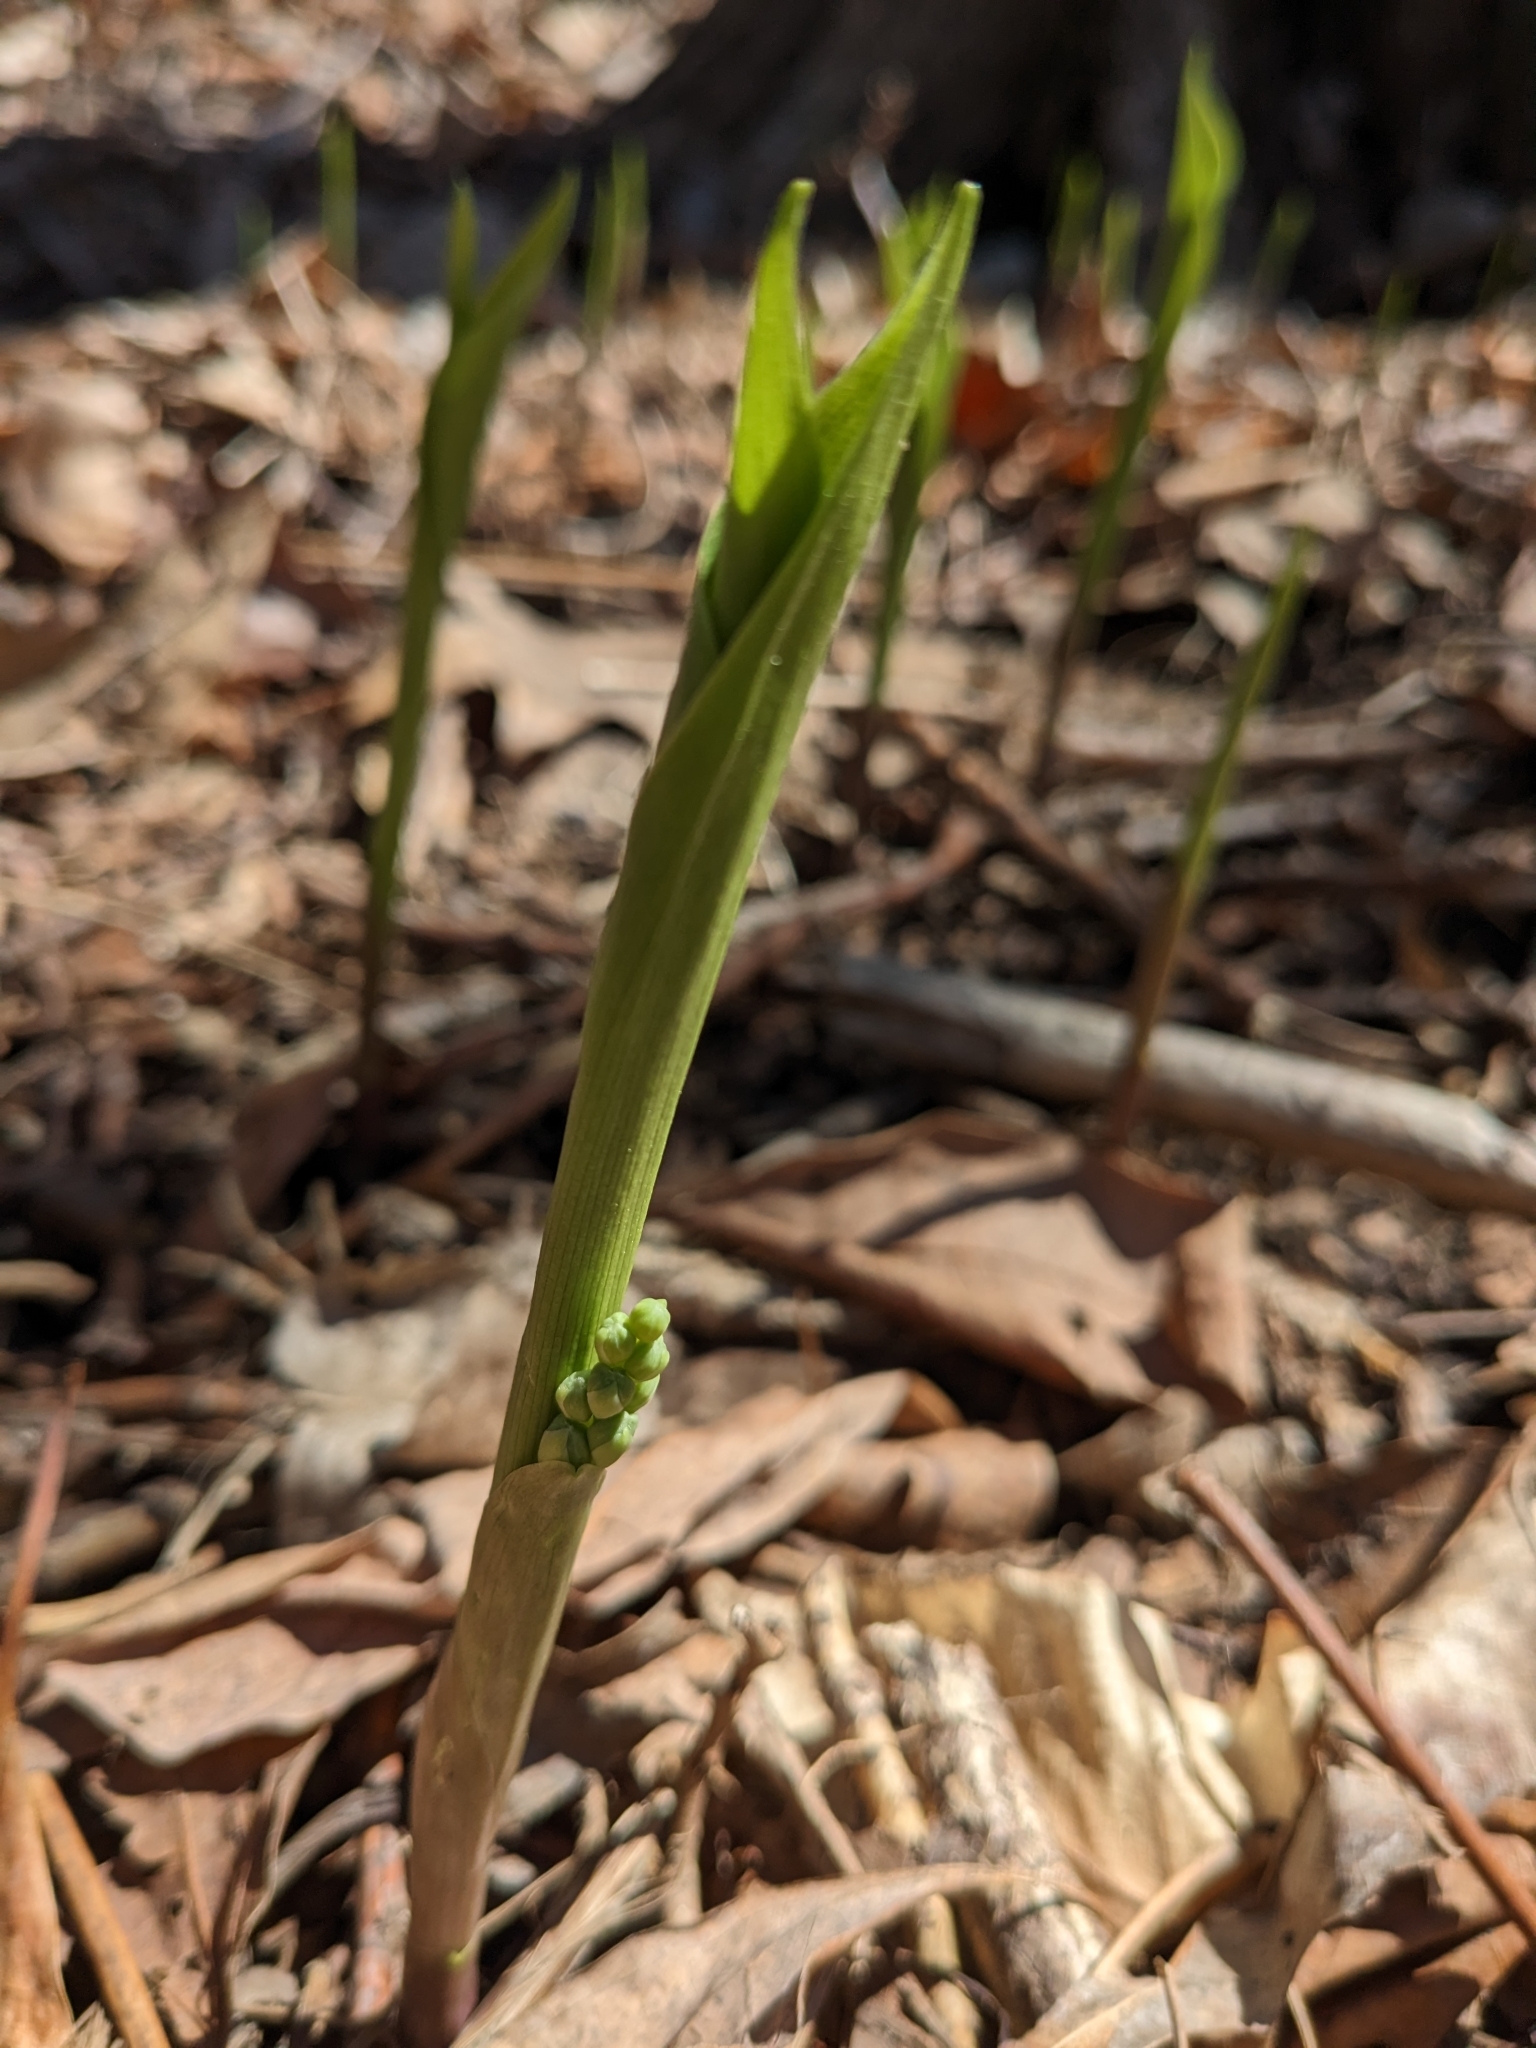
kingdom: Plantae
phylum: Tracheophyta
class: Liliopsida
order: Asparagales
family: Asparagaceae
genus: Convallaria
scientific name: Convallaria majalis
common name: Lily-of-the-valley
